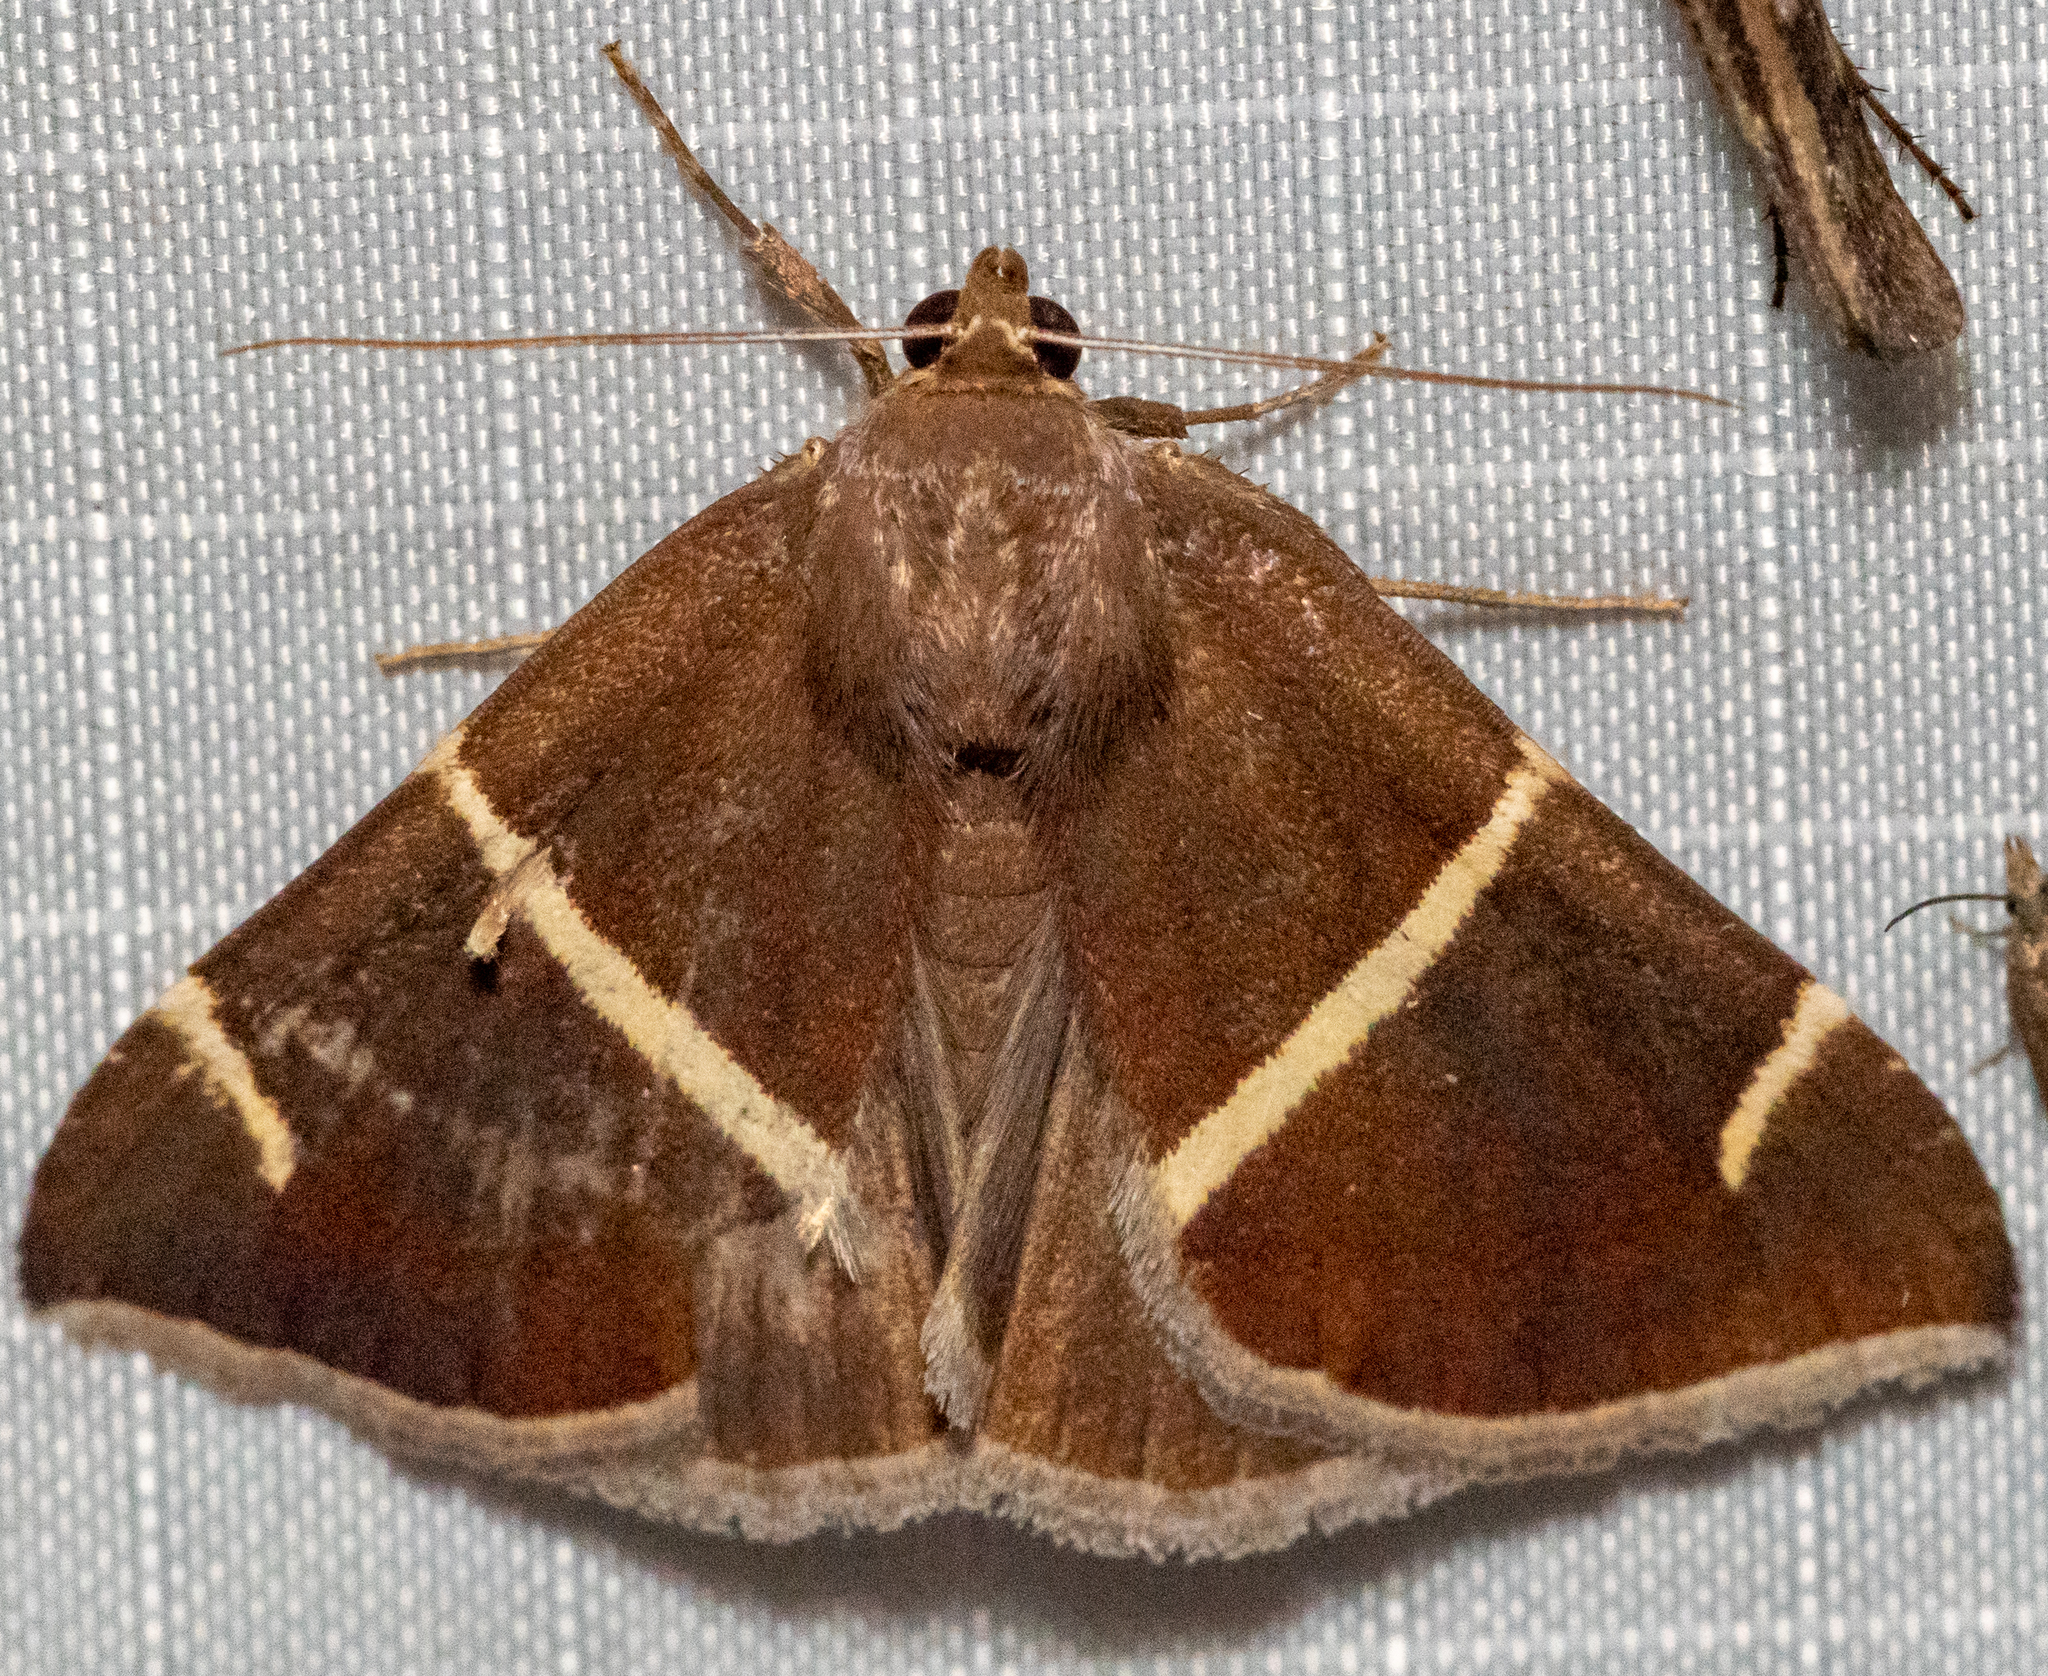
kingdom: Animalia
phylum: Arthropoda
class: Insecta
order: Lepidoptera
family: Erebidae
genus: Argyrostrotis
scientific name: Argyrostrotis anilis
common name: Short-lined chocolate
